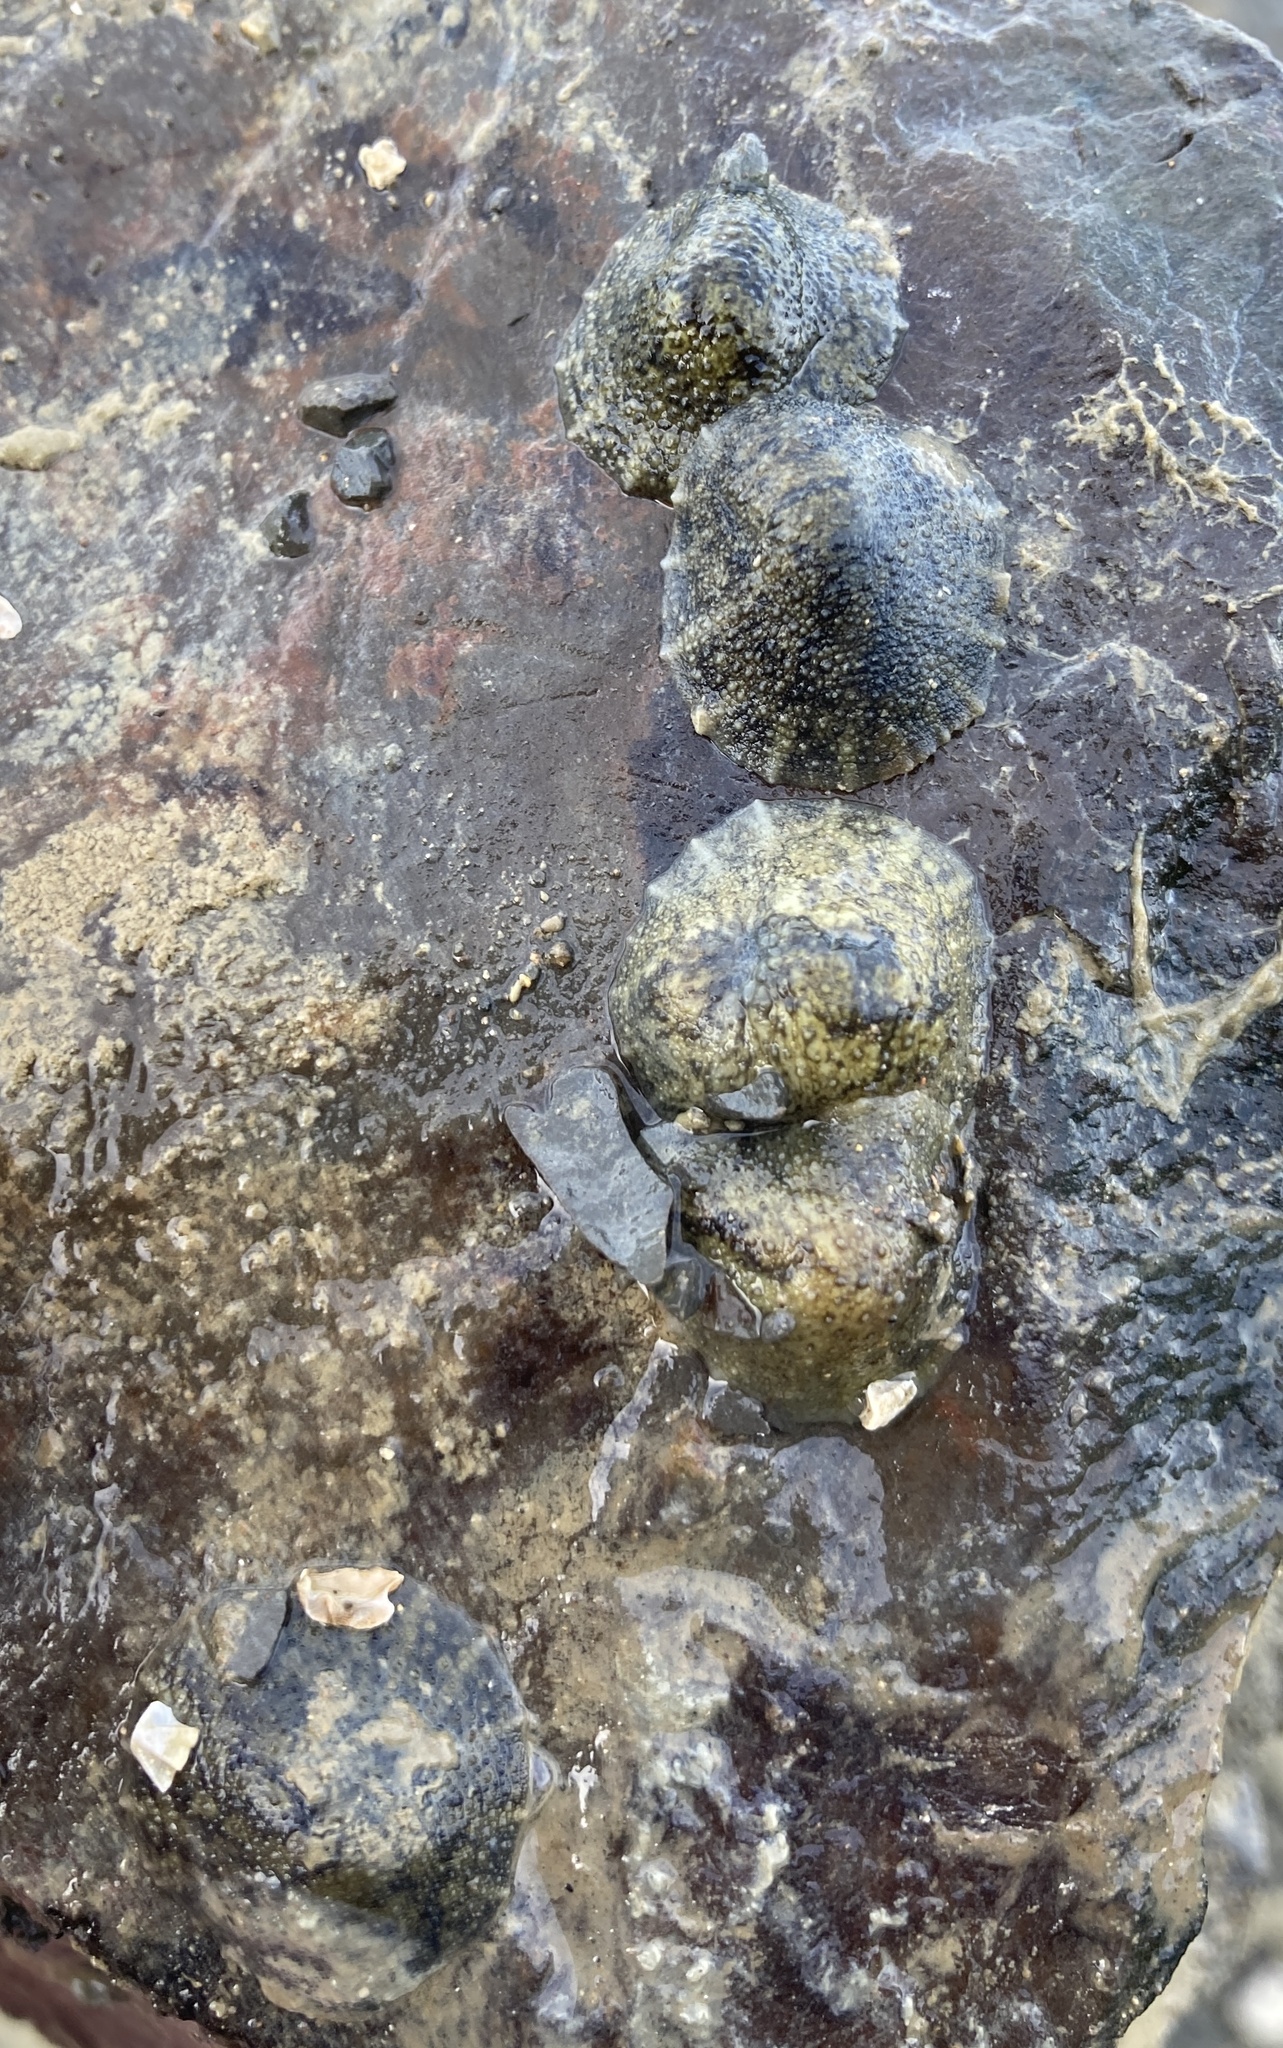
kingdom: Animalia
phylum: Mollusca
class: Gastropoda
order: Systellommatophora
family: Onchidiidae
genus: Onchidella
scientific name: Onchidella nigricans
